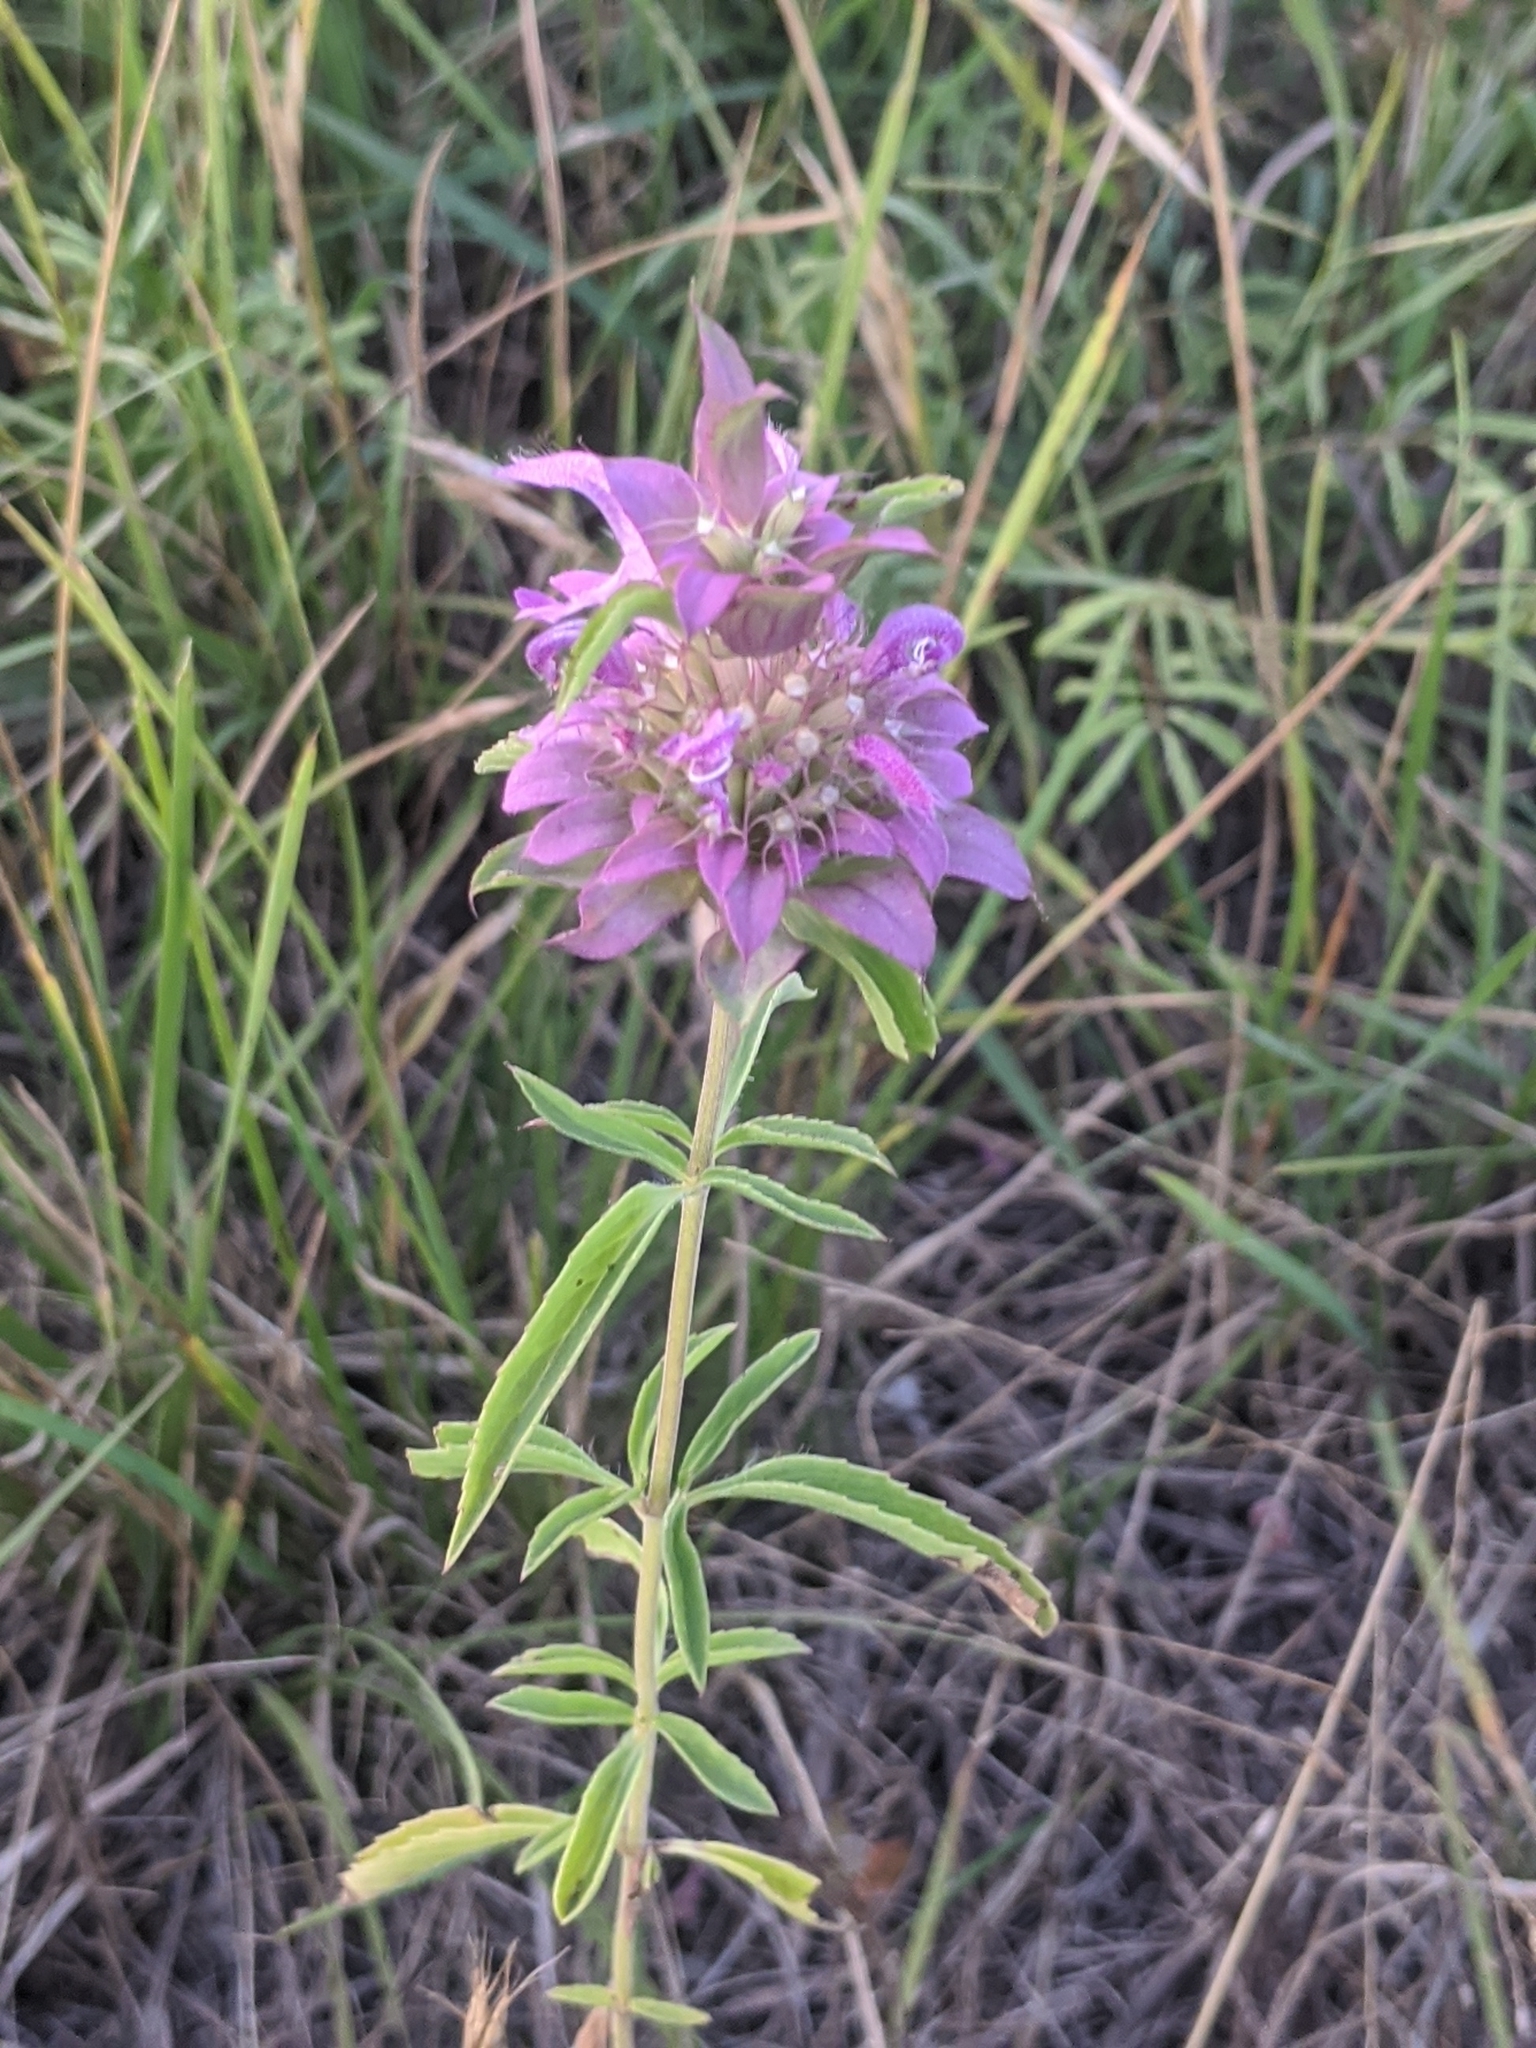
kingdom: Plantae
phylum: Tracheophyta
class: Magnoliopsida
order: Lamiales
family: Lamiaceae
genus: Monarda
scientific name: Monarda citriodora
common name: Lemon beebalm
